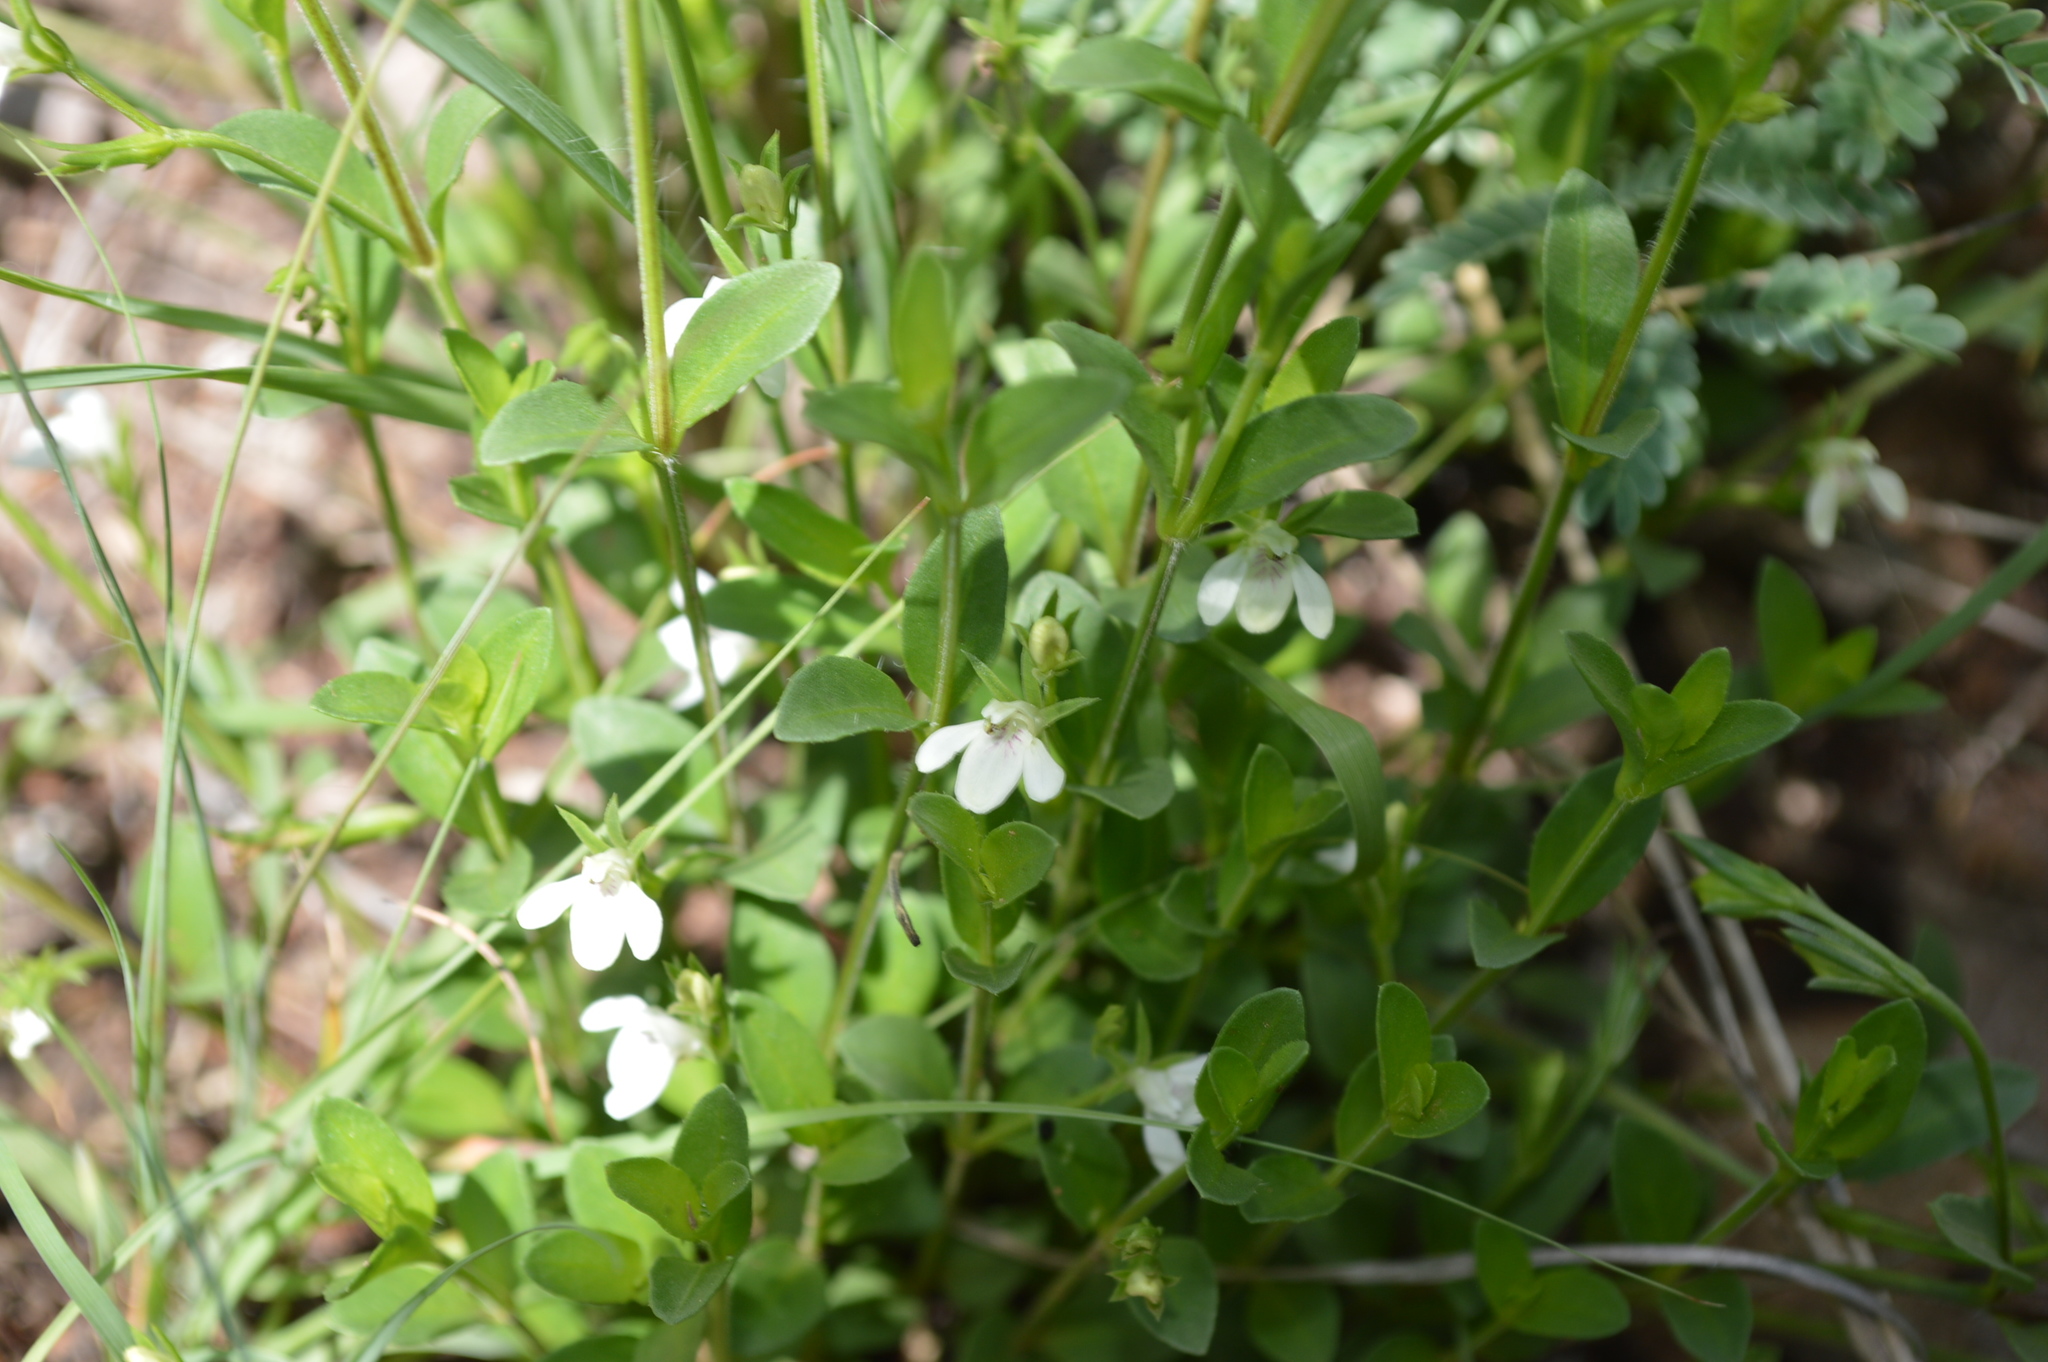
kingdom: Plantae
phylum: Tracheophyta
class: Magnoliopsida
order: Lamiales
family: Acanthaceae
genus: Justicia
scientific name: Justicia anagalloides
